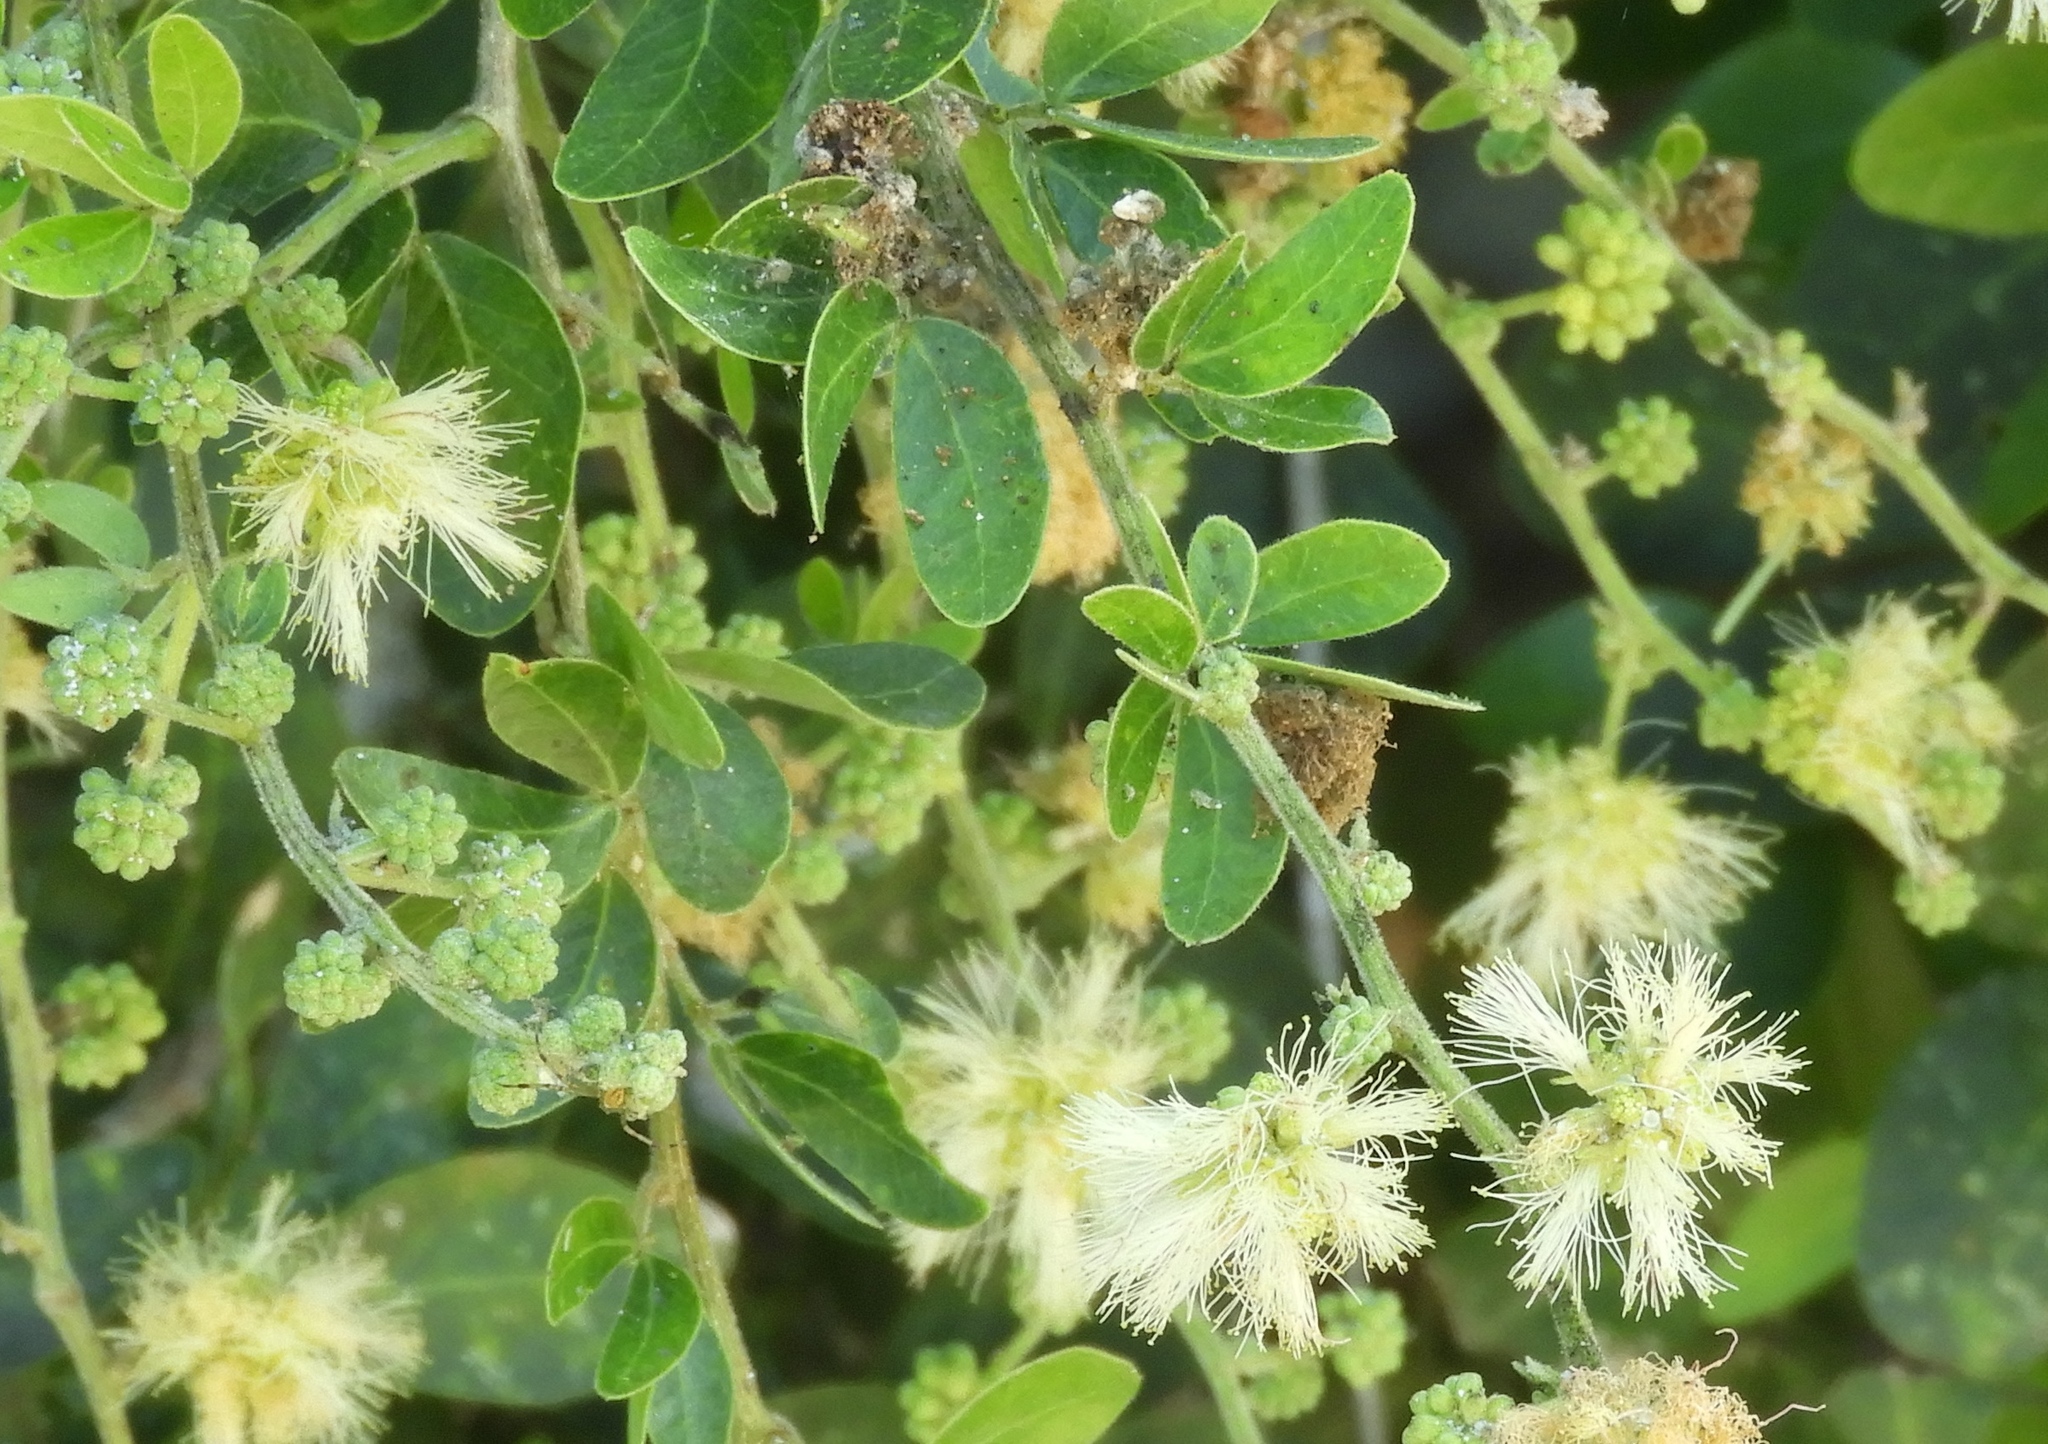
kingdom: Plantae
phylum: Tracheophyta
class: Magnoliopsida
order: Fabales
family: Fabaceae
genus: Pithecellobium
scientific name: Pithecellobium dulce
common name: Monkeypod
